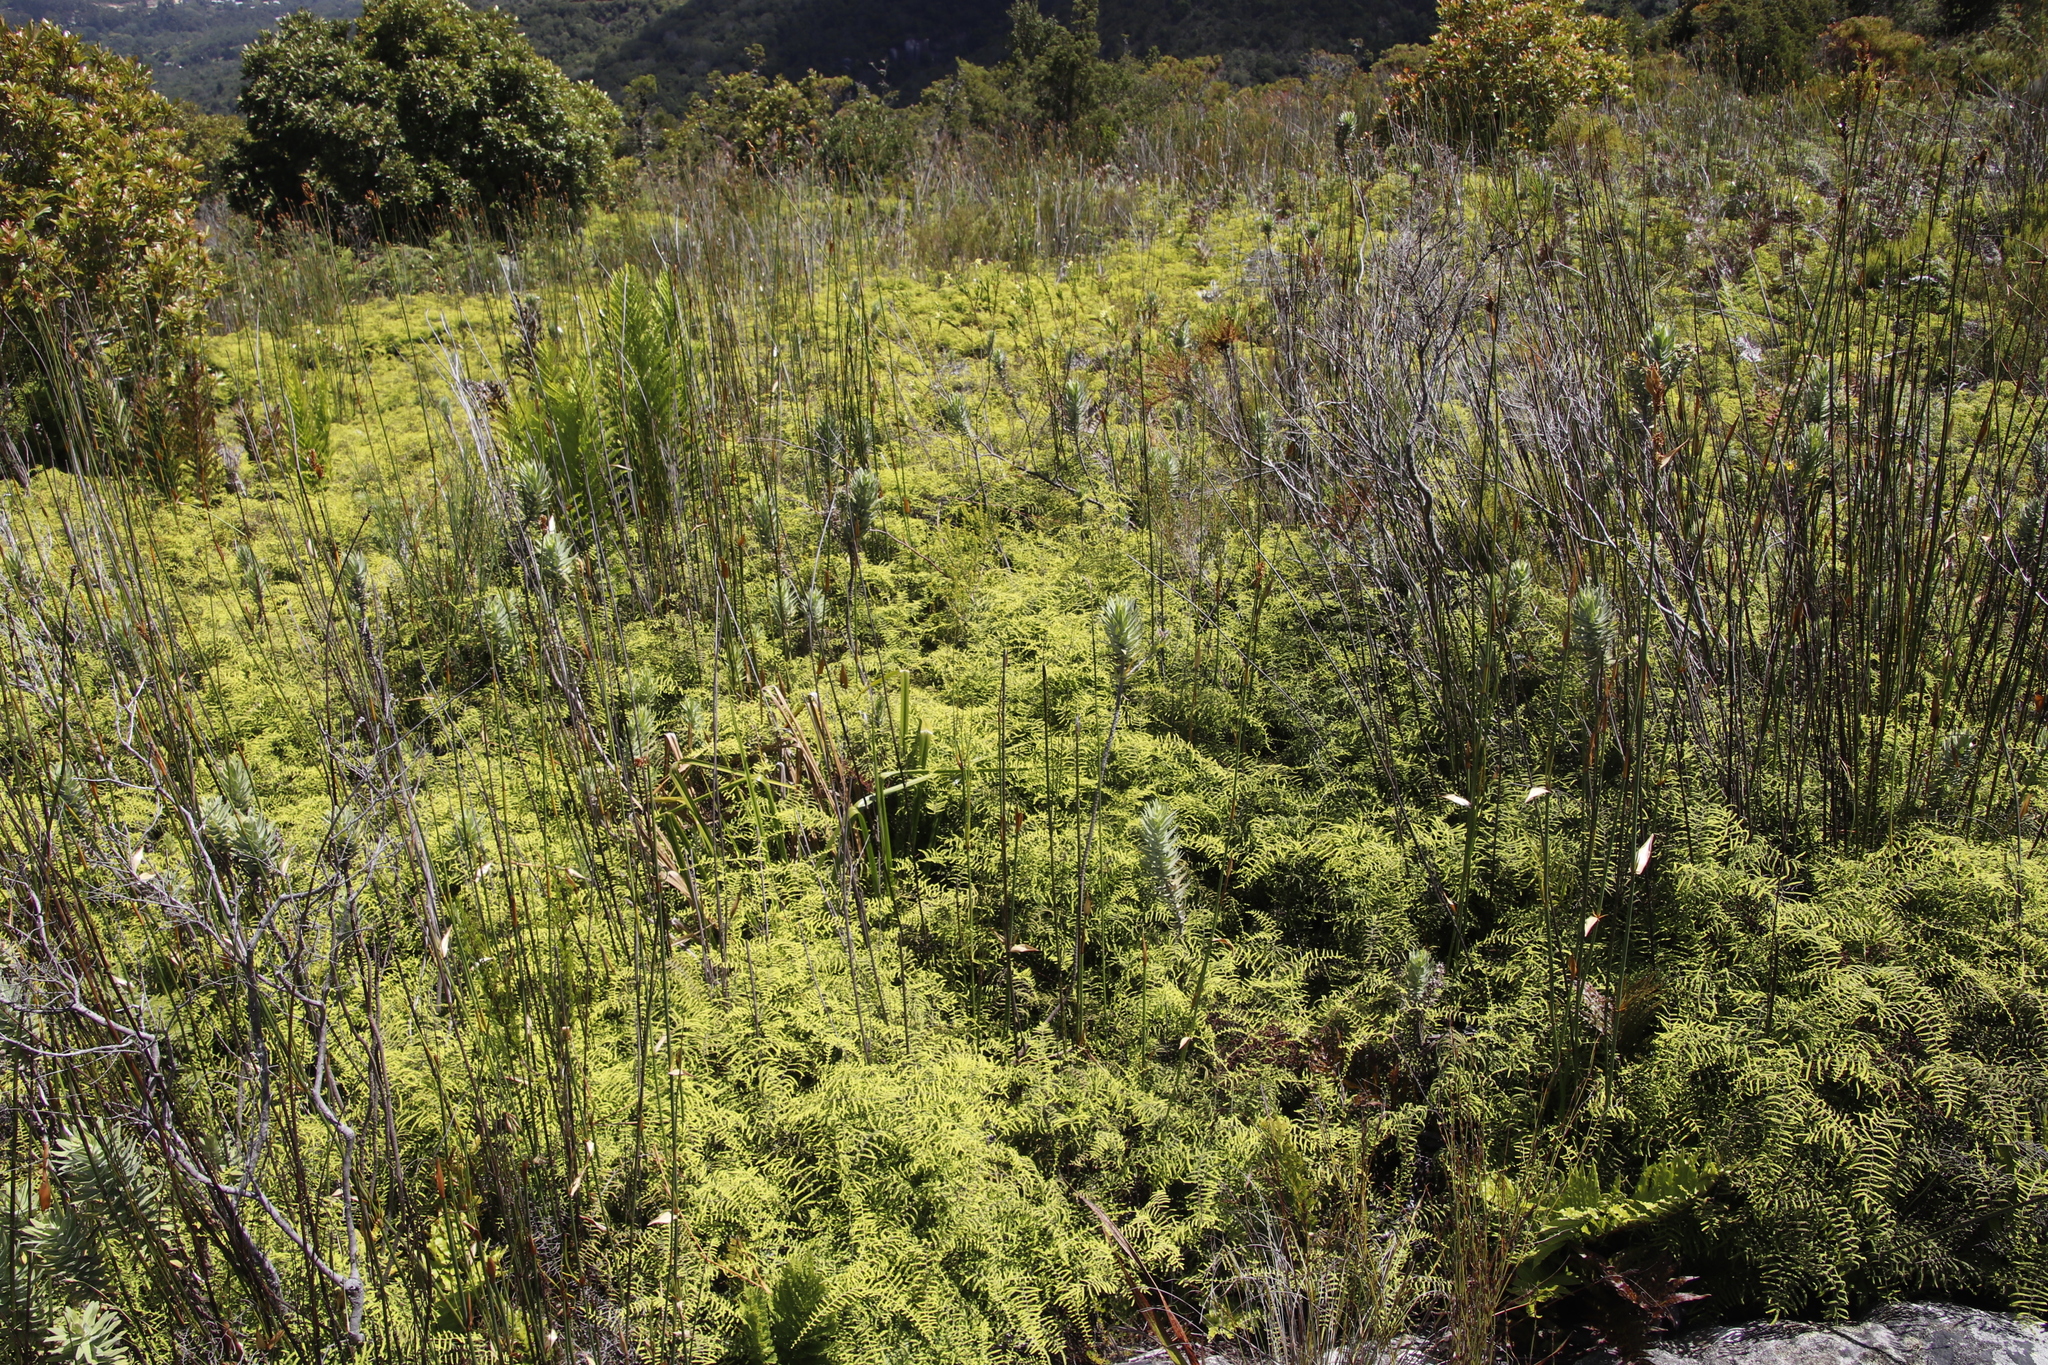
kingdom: Plantae
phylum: Tracheophyta
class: Polypodiopsida
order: Gleicheniales
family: Gleicheniaceae
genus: Gleichenia
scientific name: Gleichenia polypodioides
